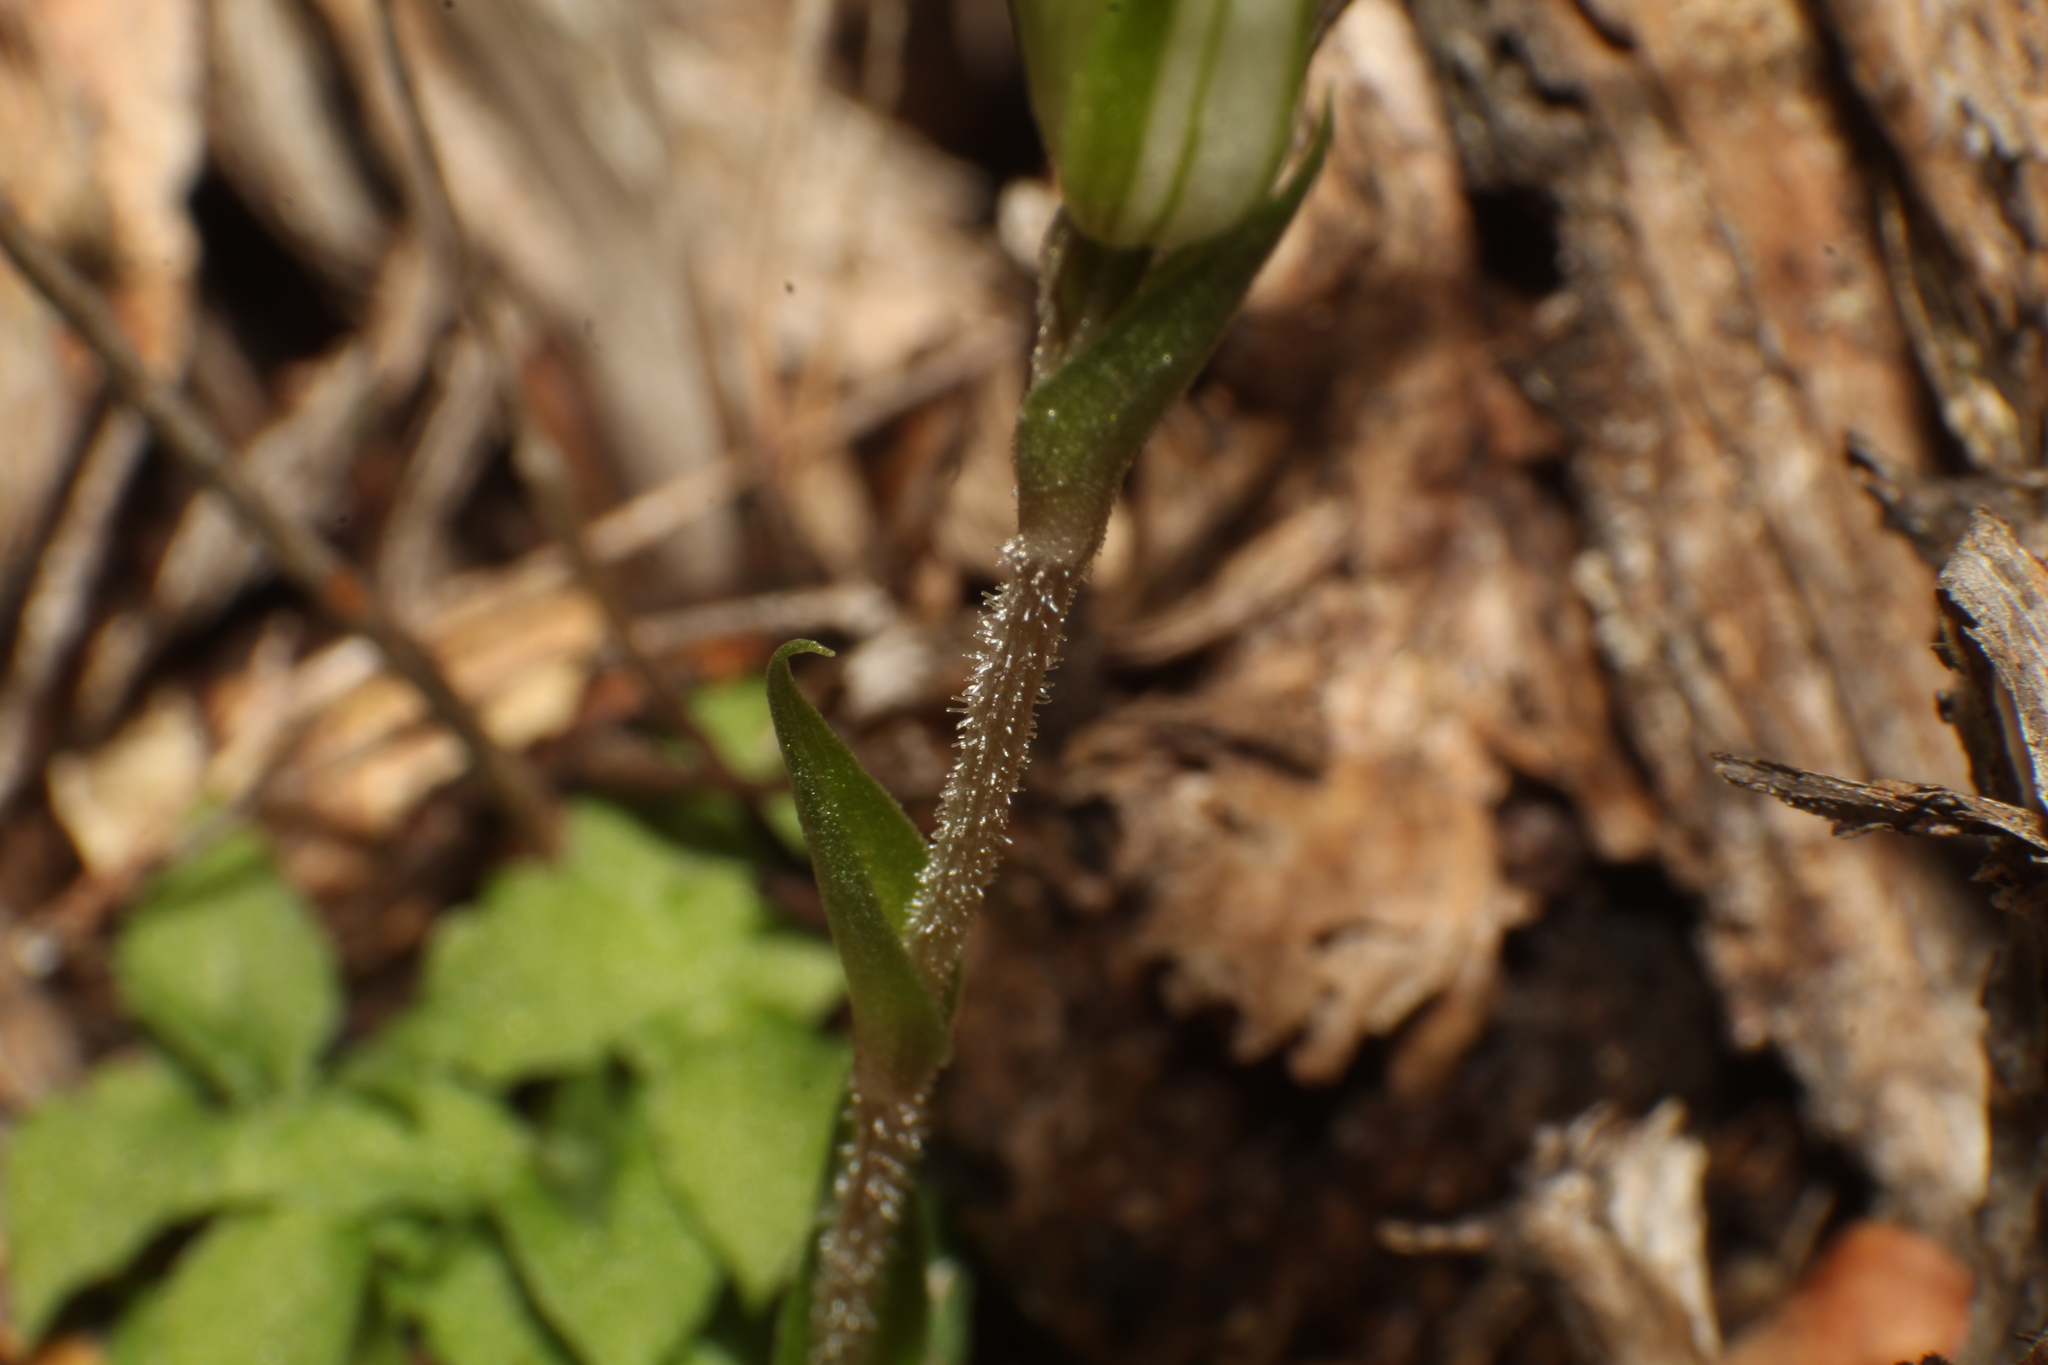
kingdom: Plantae
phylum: Tracheophyta
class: Liliopsida
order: Asparagales
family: Orchidaceae
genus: Pterostylis
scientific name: Pterostylis setulosa
